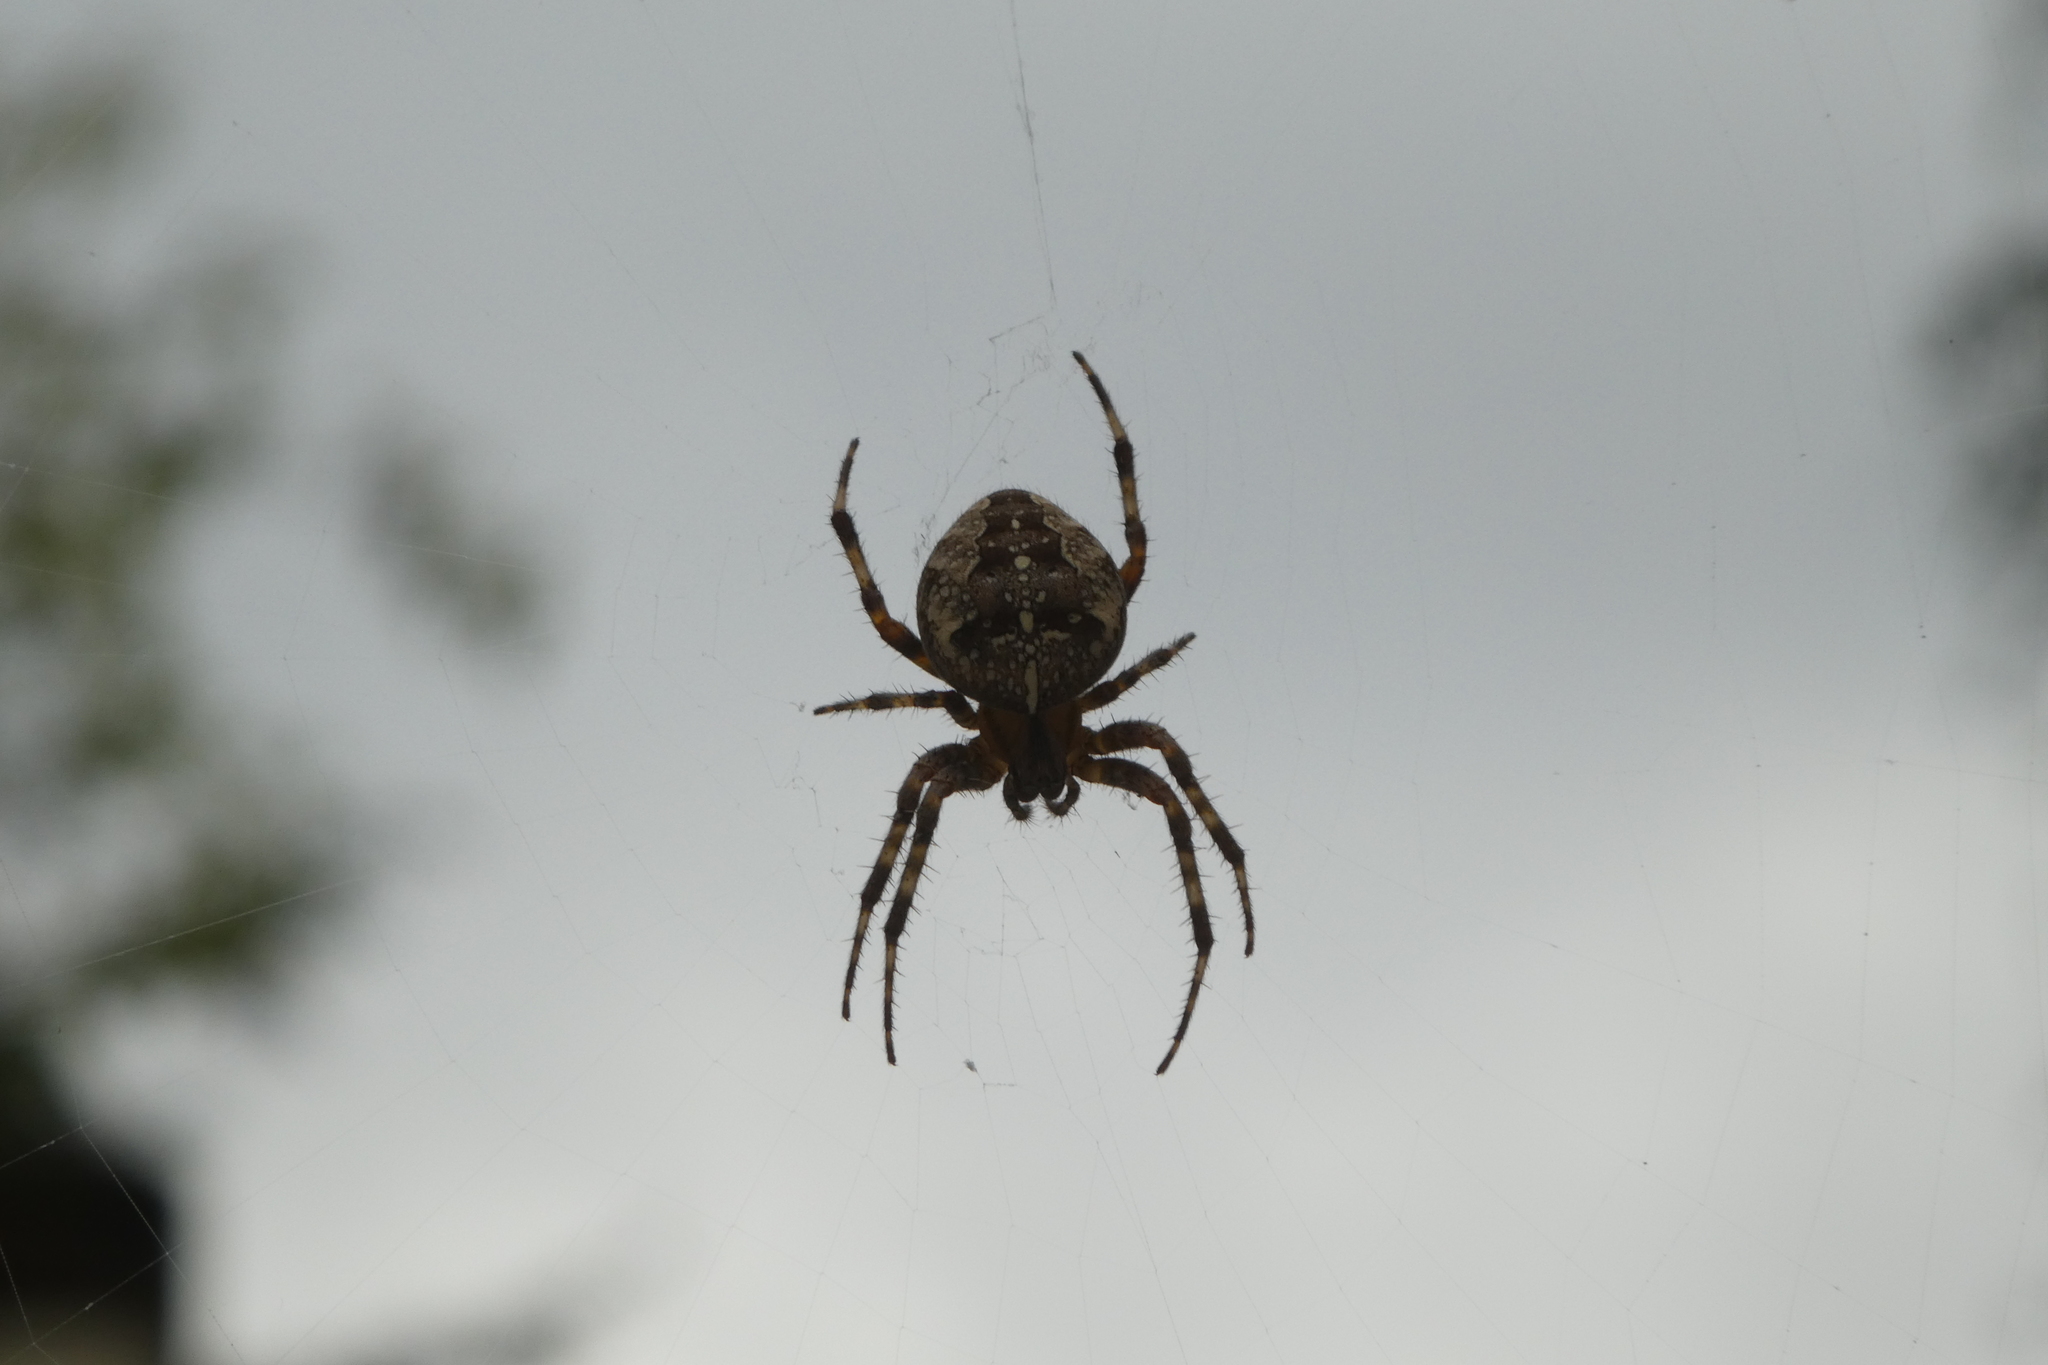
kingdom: Animalia
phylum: Arthropoda
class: Arachnida
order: Araneae
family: Araneidae
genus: Araneus
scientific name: Araneus diadematus
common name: Cross orbweaver
